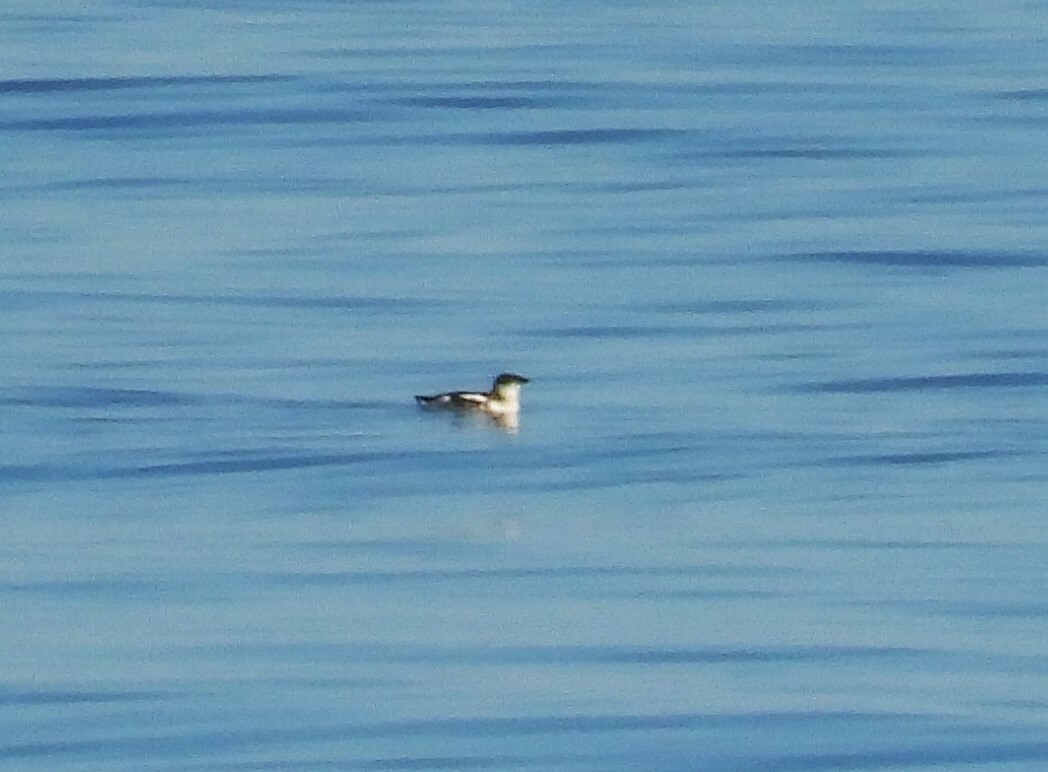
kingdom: Animalia
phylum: Chordata
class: Aves
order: Charadriiformes
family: Alcidae
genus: Brachyramphus
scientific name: Brachyramphus marmoratus
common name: Marbled murrelet
